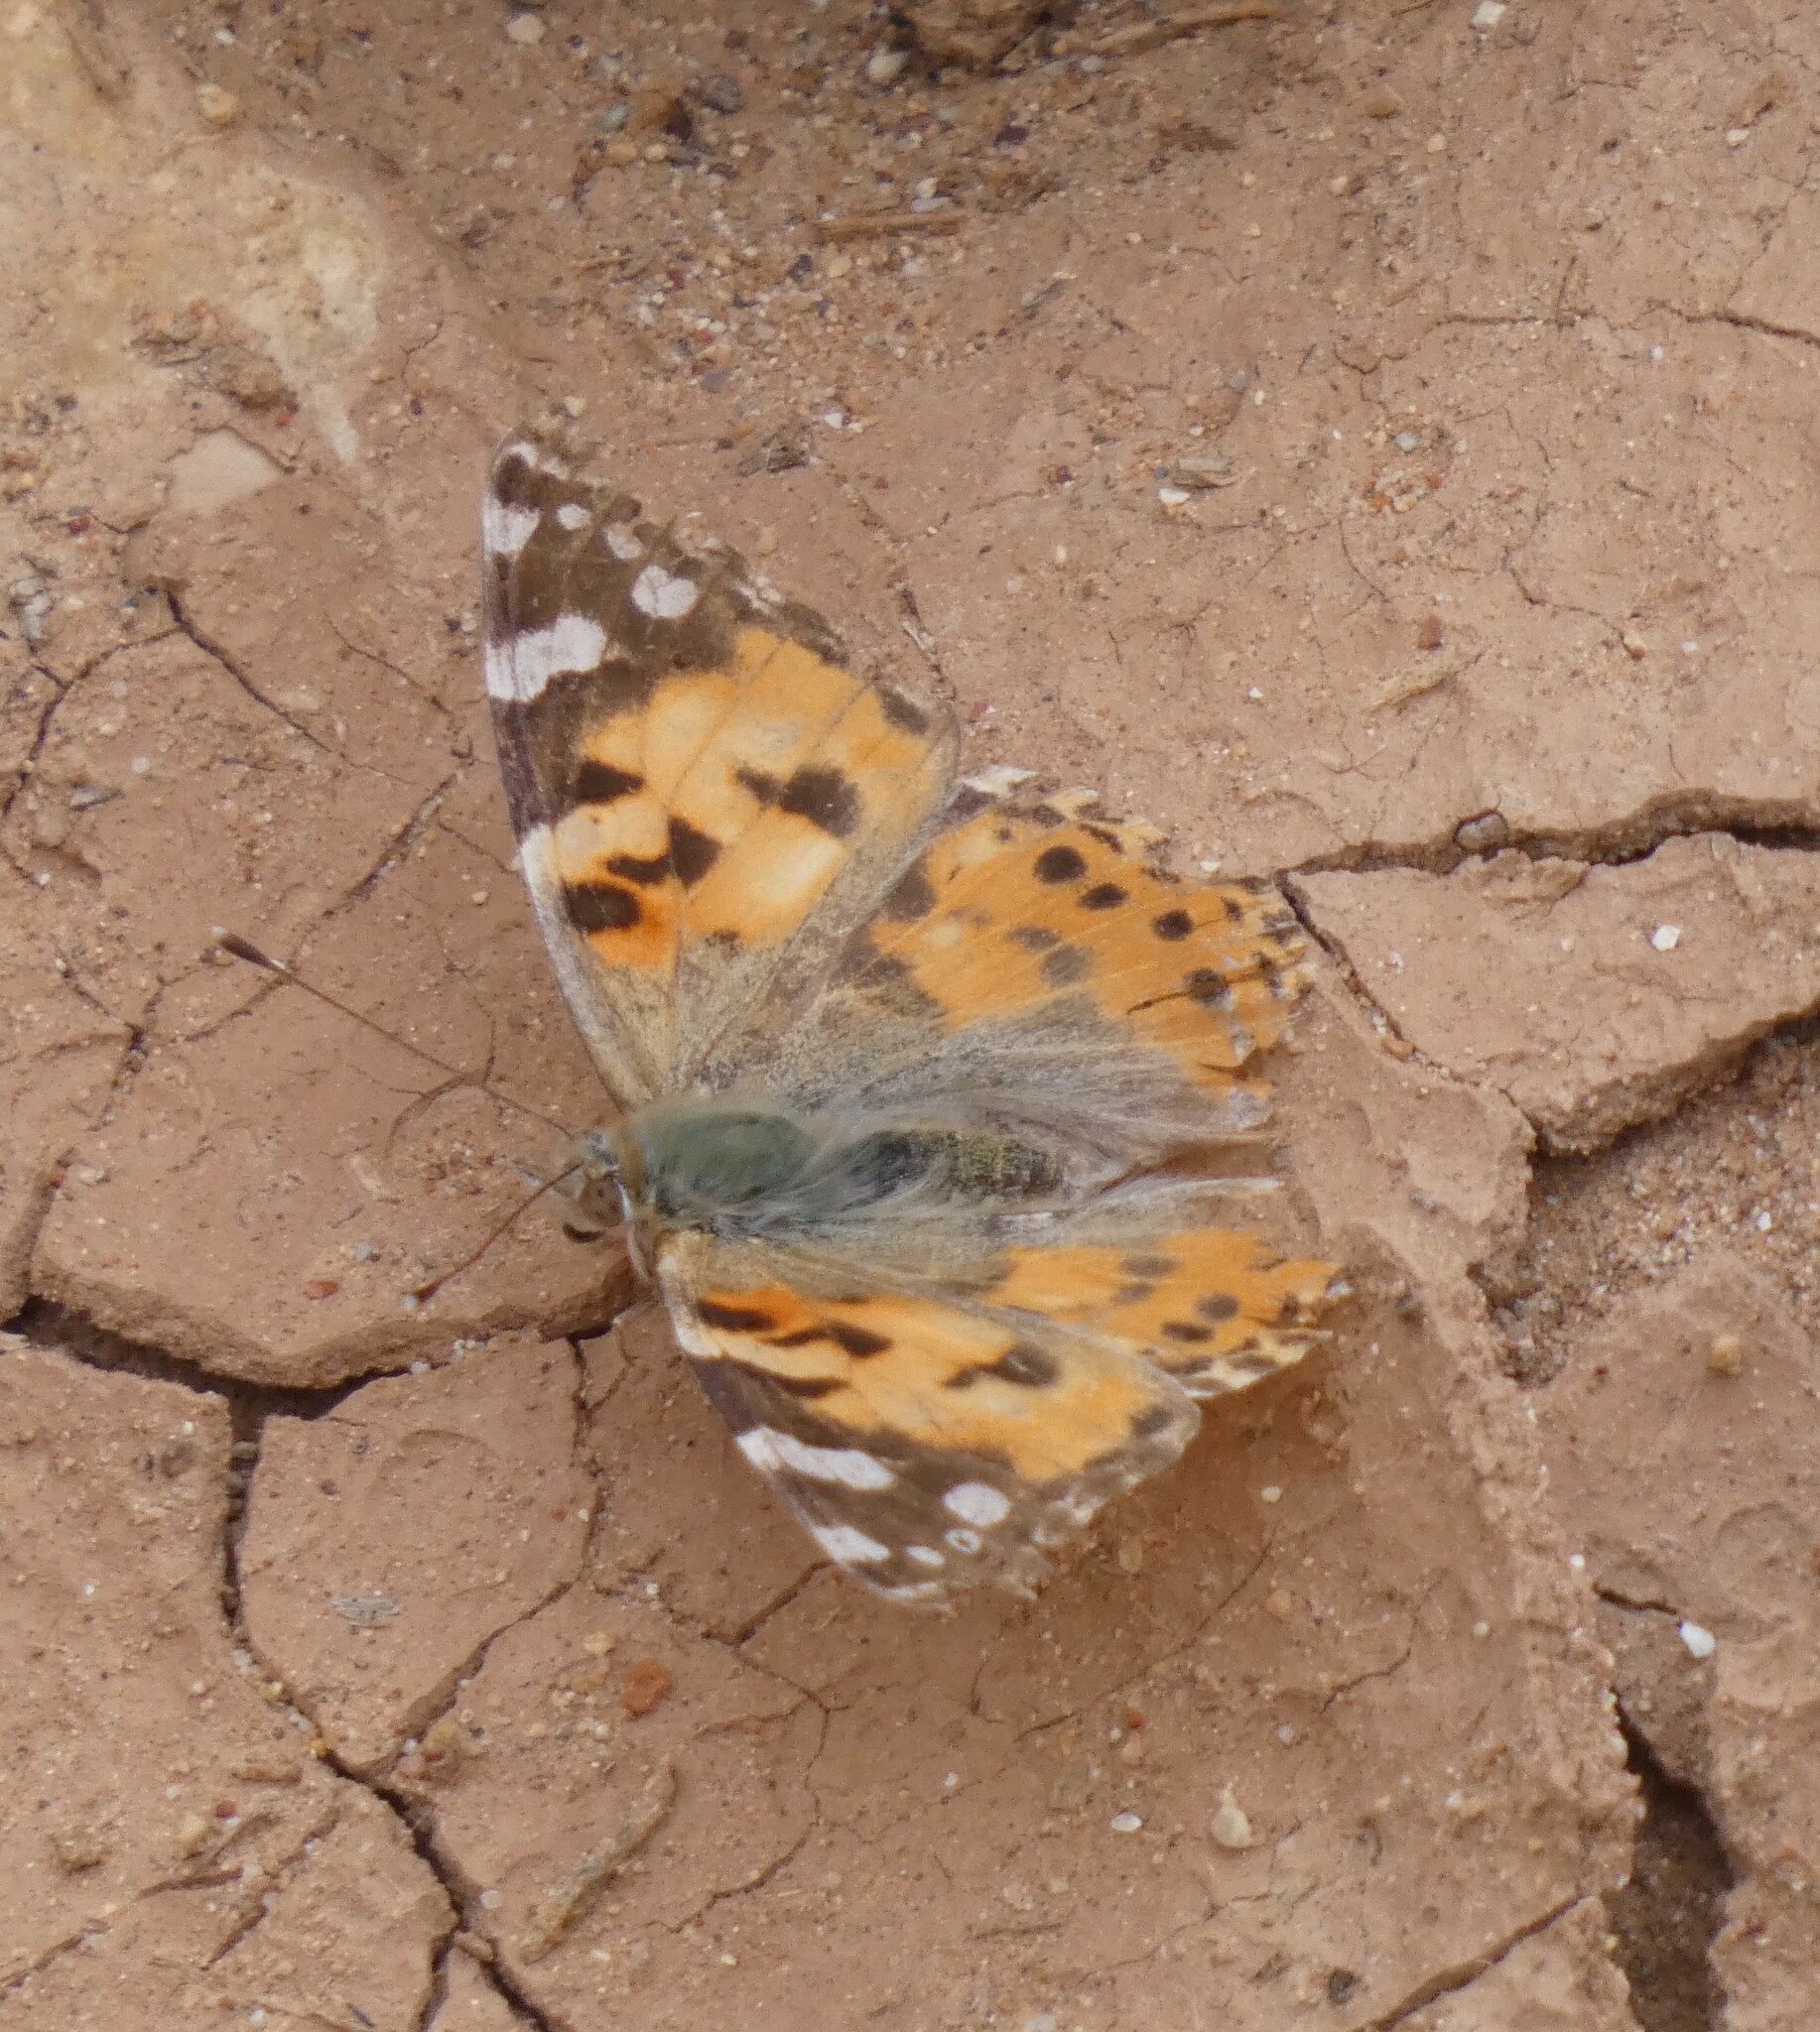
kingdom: Animalia
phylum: Arthropoda
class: Insecta
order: Lepidoptera
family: Nymphalidae
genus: Vanessa
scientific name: Vanessa cardui
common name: Painted lady
